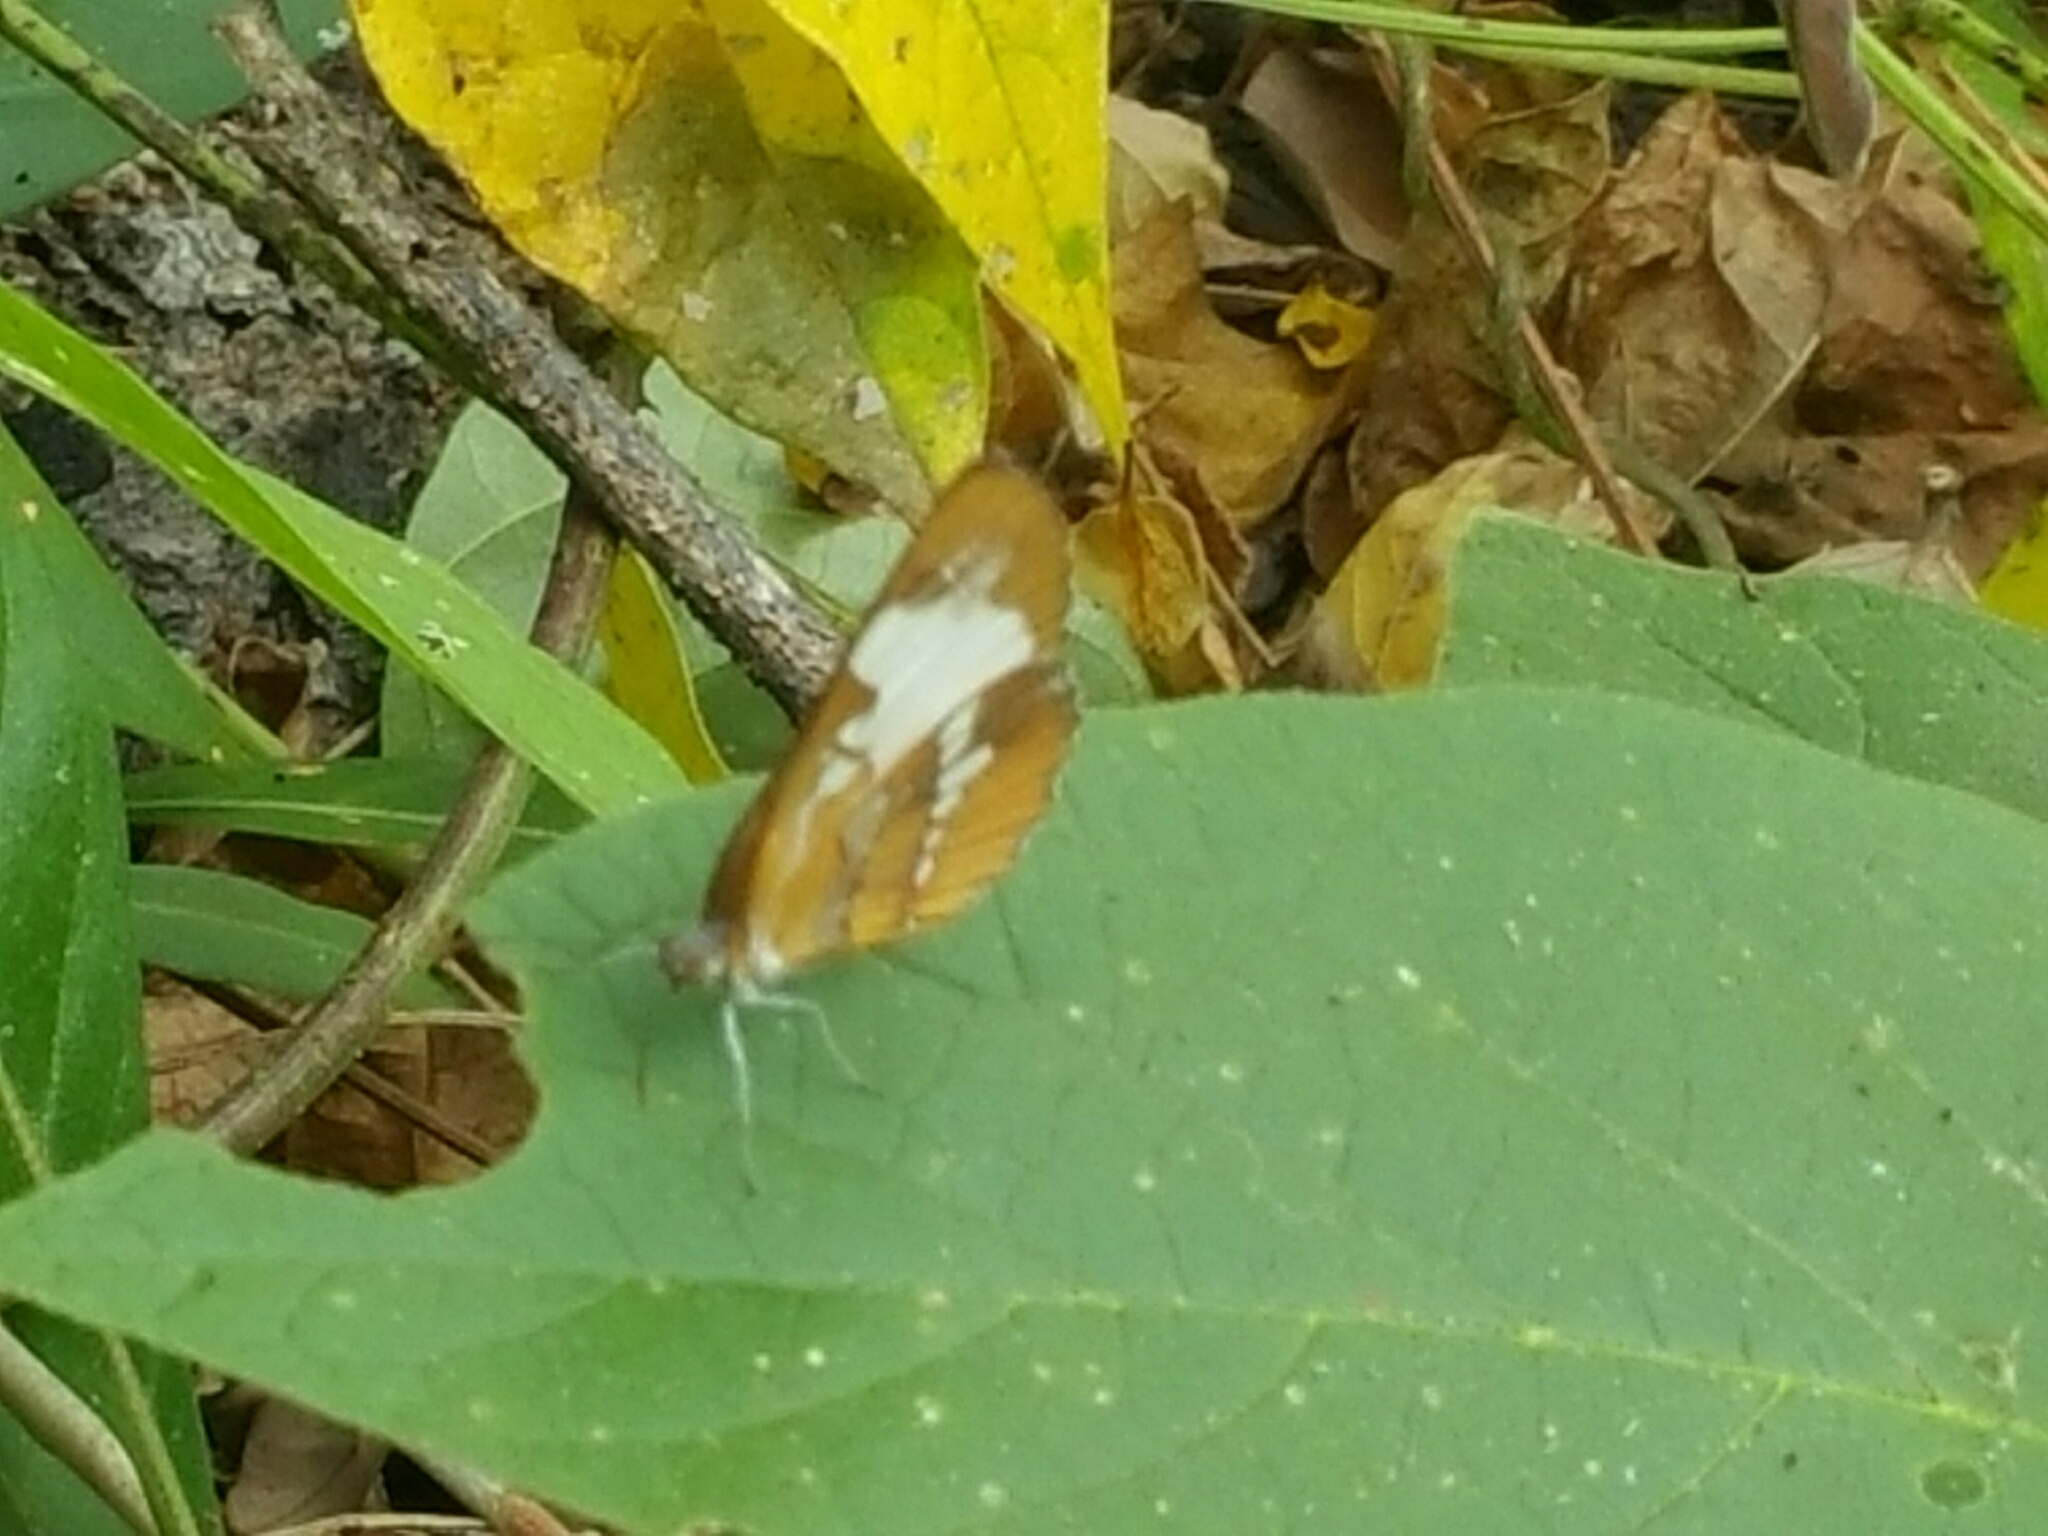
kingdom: Animalia
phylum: Arthropoda
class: Insecta
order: Lepidoptera
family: Nymphalidae
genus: Mestra
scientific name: Mestra amymone
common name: Common mestra
